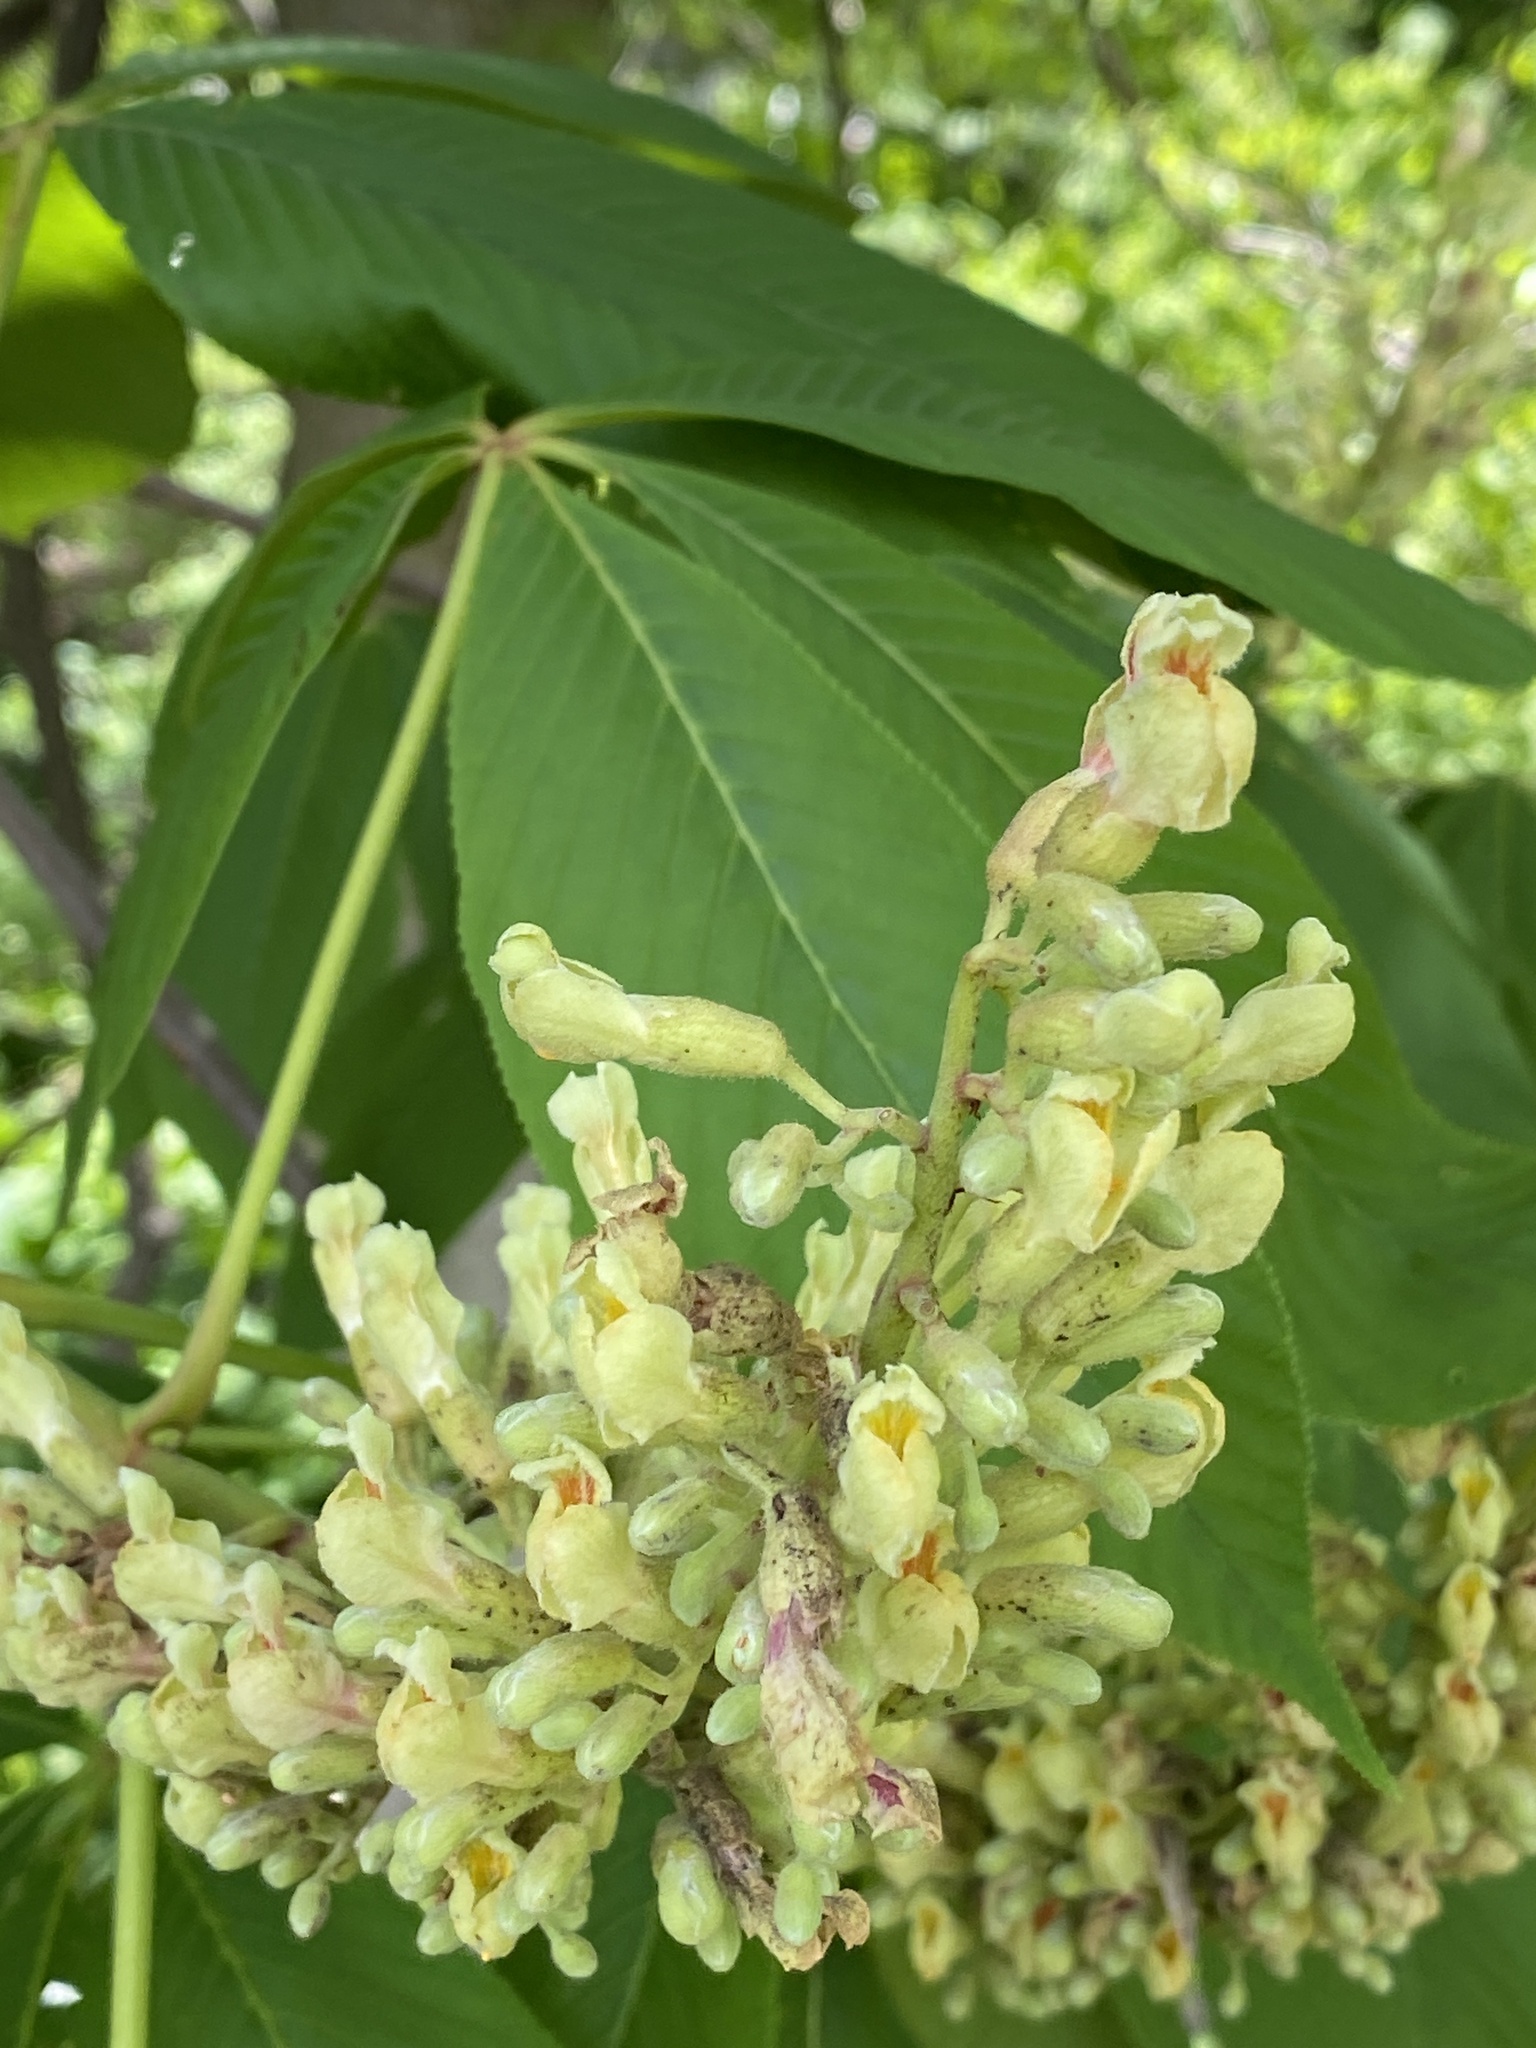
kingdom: Plantae
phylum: Tracheophyta
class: Magnoliopsida
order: Sapindales
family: Sapindaceae
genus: Aesculus
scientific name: Aesculus flava
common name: Yellow buckeye
